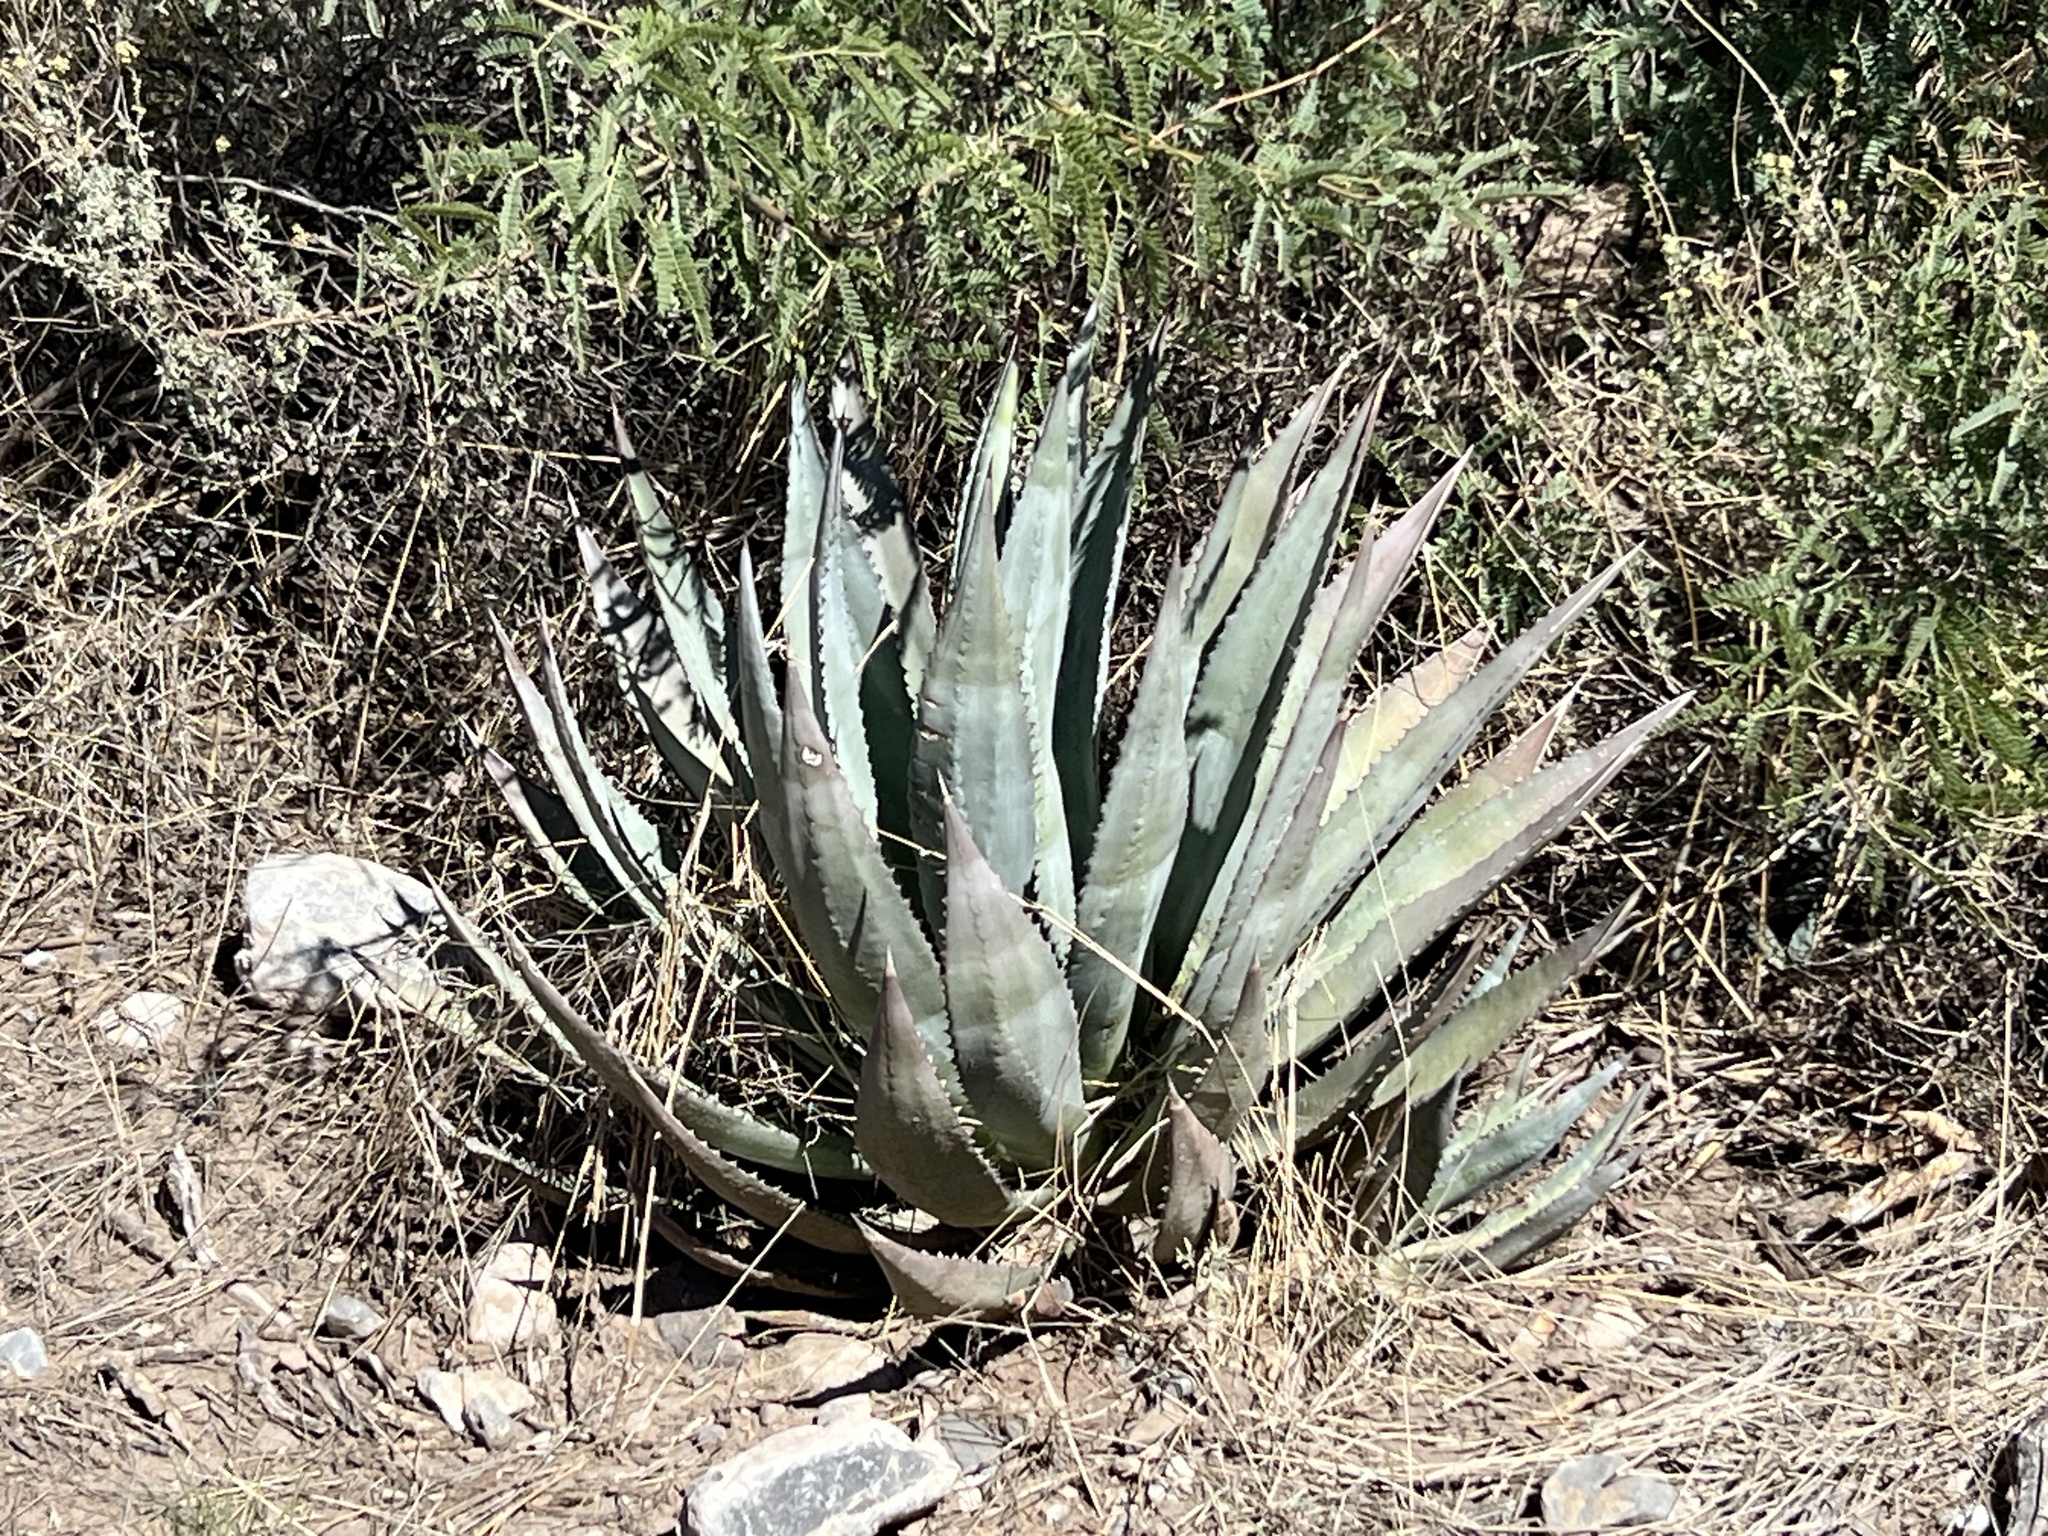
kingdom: Plantae
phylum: Tracheophyta
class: Liliopsida
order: Asparagales
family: Asparagaceae
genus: Agave
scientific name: Agave palmeri
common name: Palmer agave
